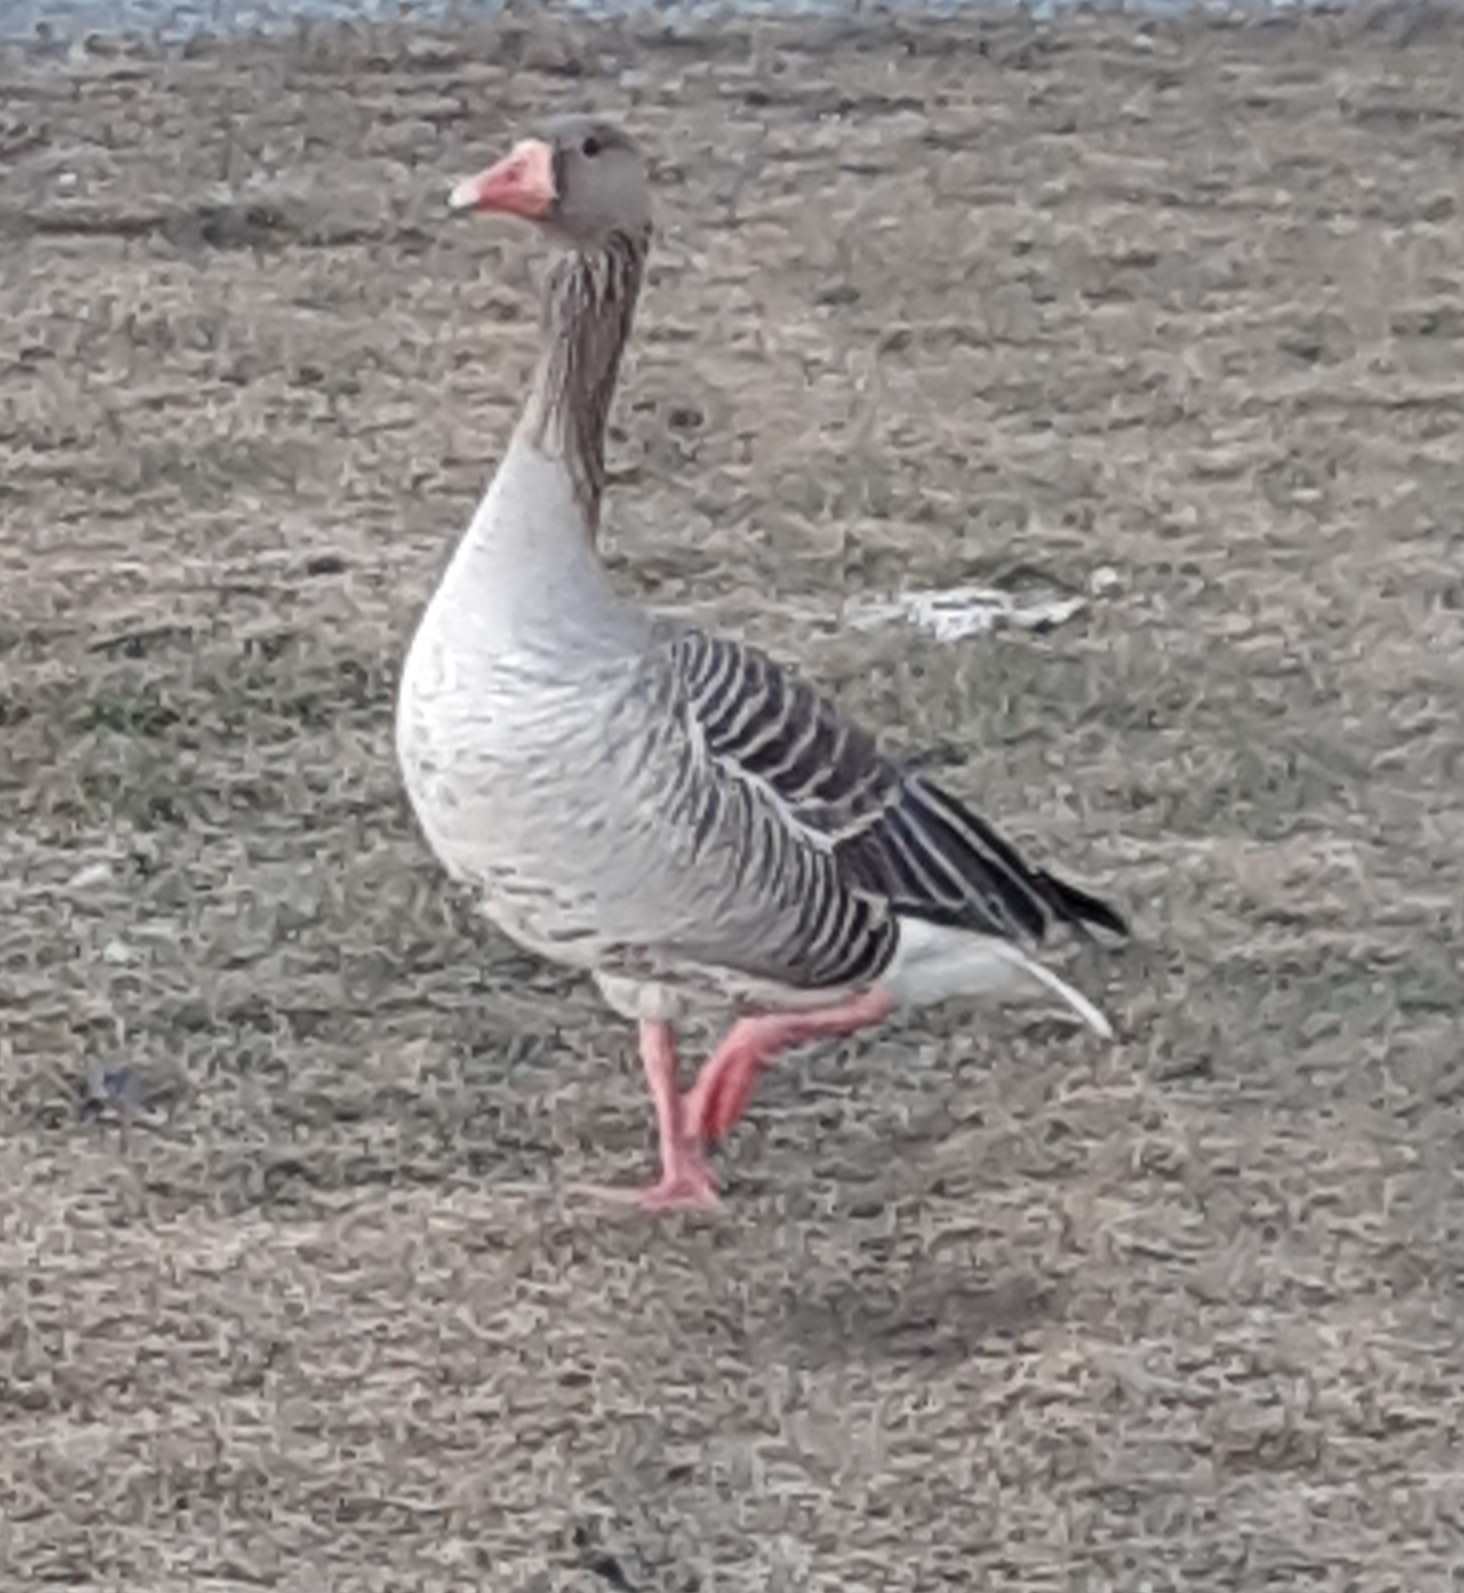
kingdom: Animalia
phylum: Chordata
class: Aves
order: Anseriformes
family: Anatidae
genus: Anser
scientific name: Anser anser
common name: Greylag goose
